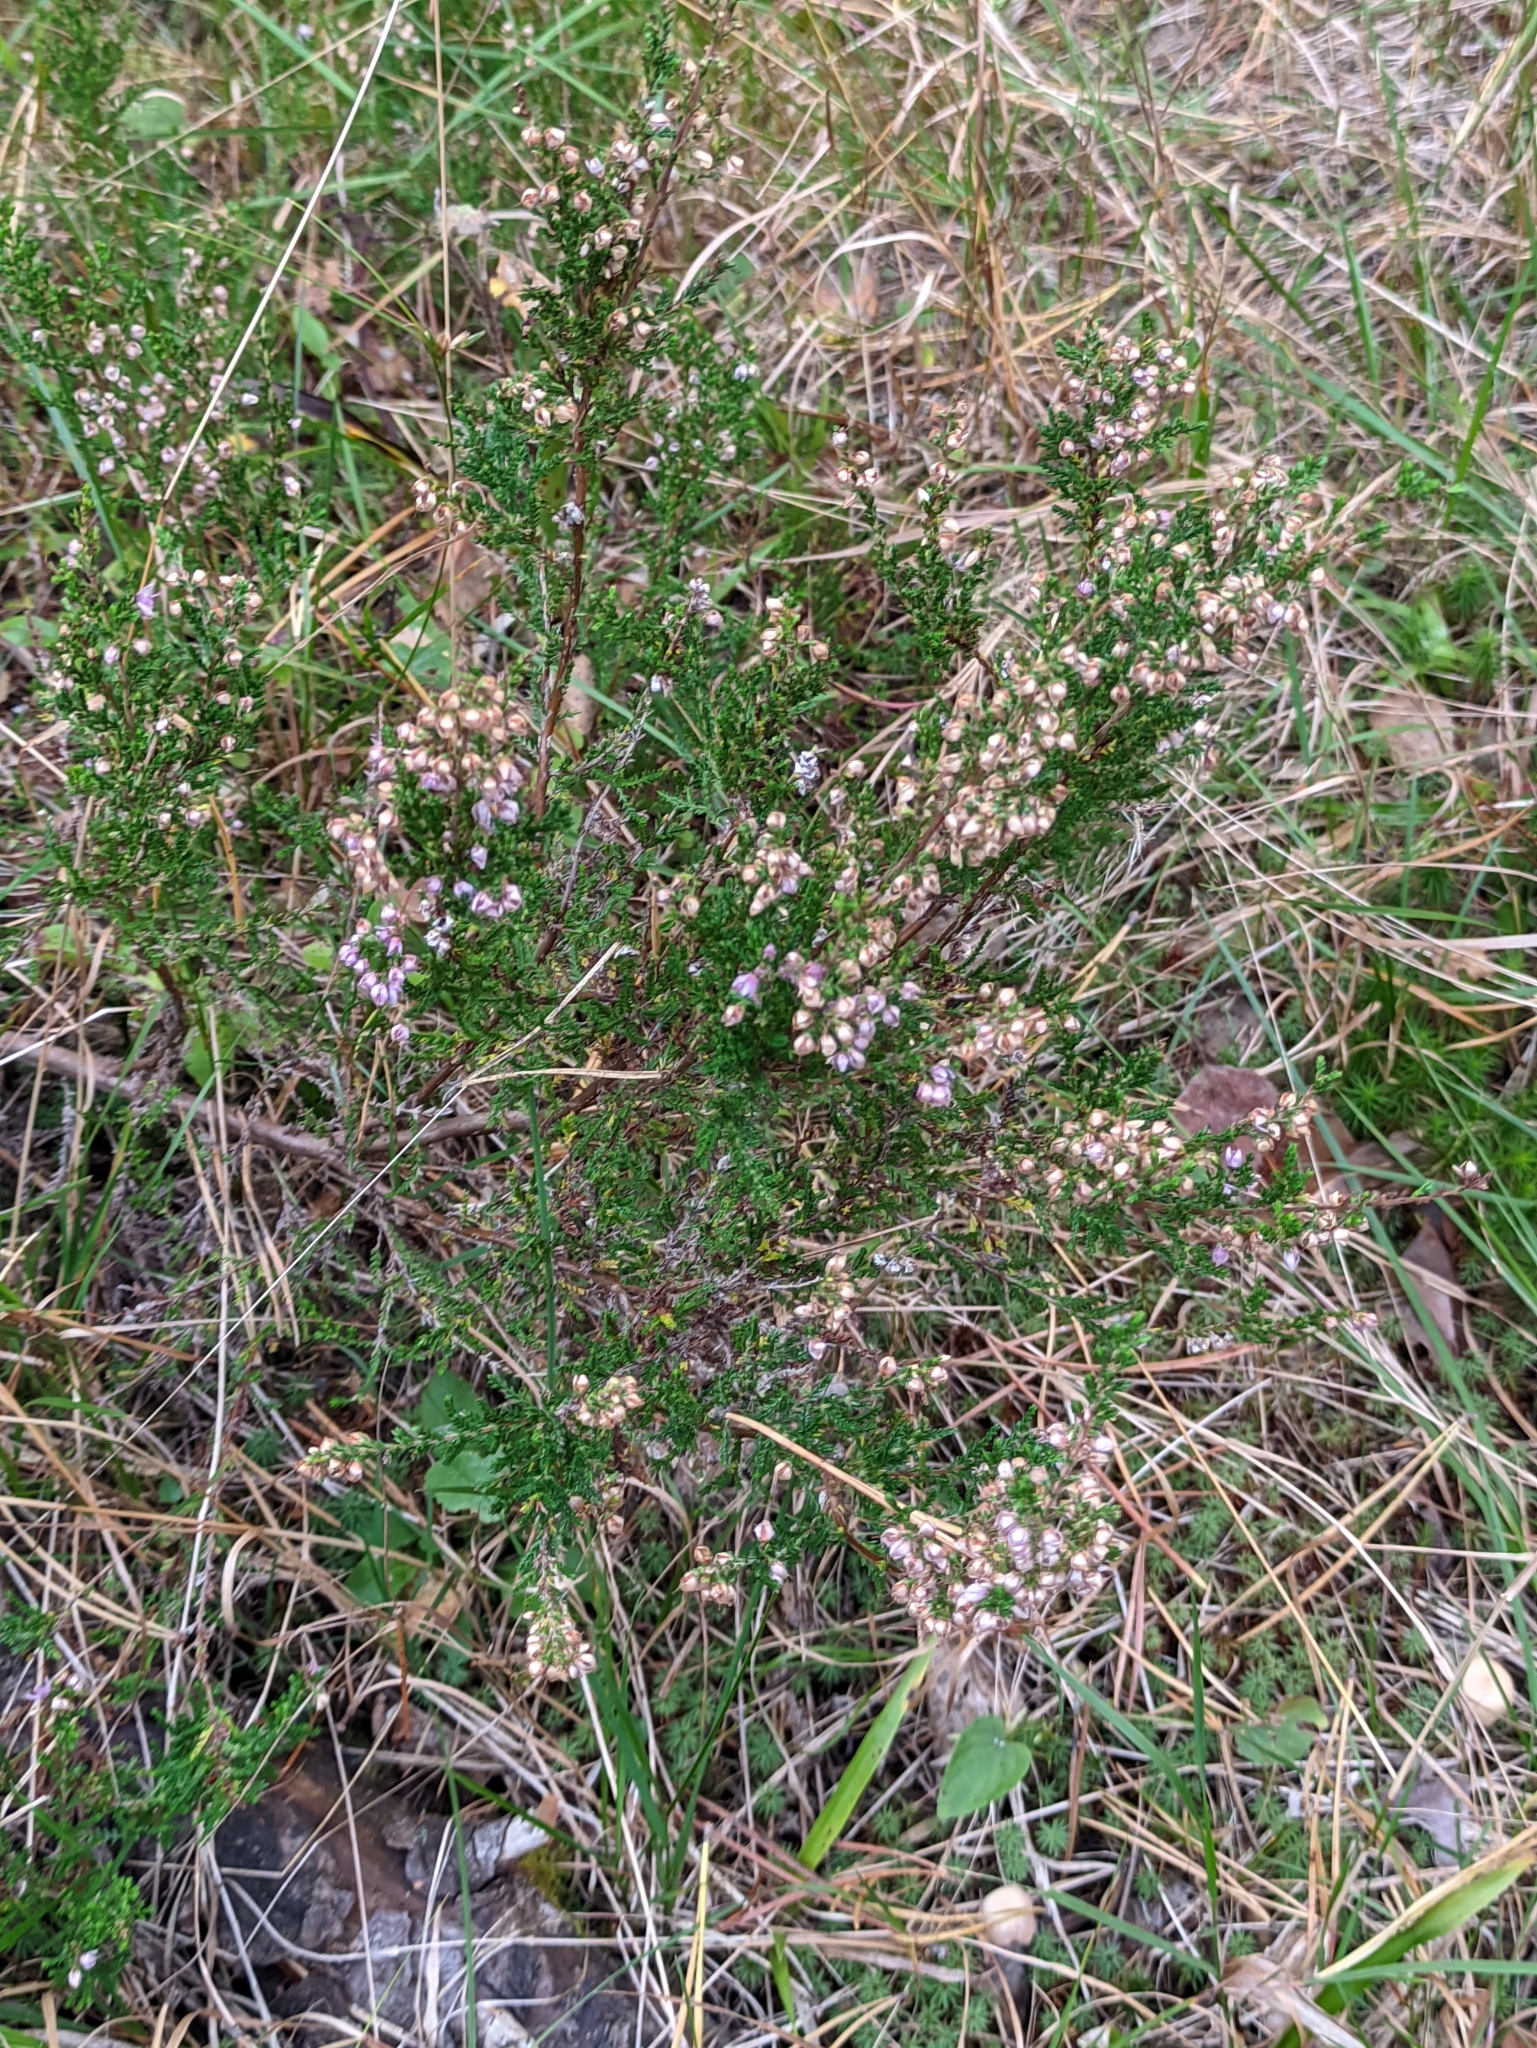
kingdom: Plantae
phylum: Tracheophyta
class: Magnoliopsida
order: Ericales
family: Ericaceae
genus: Calluna
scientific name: Calluna vulgaris
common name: Heather
